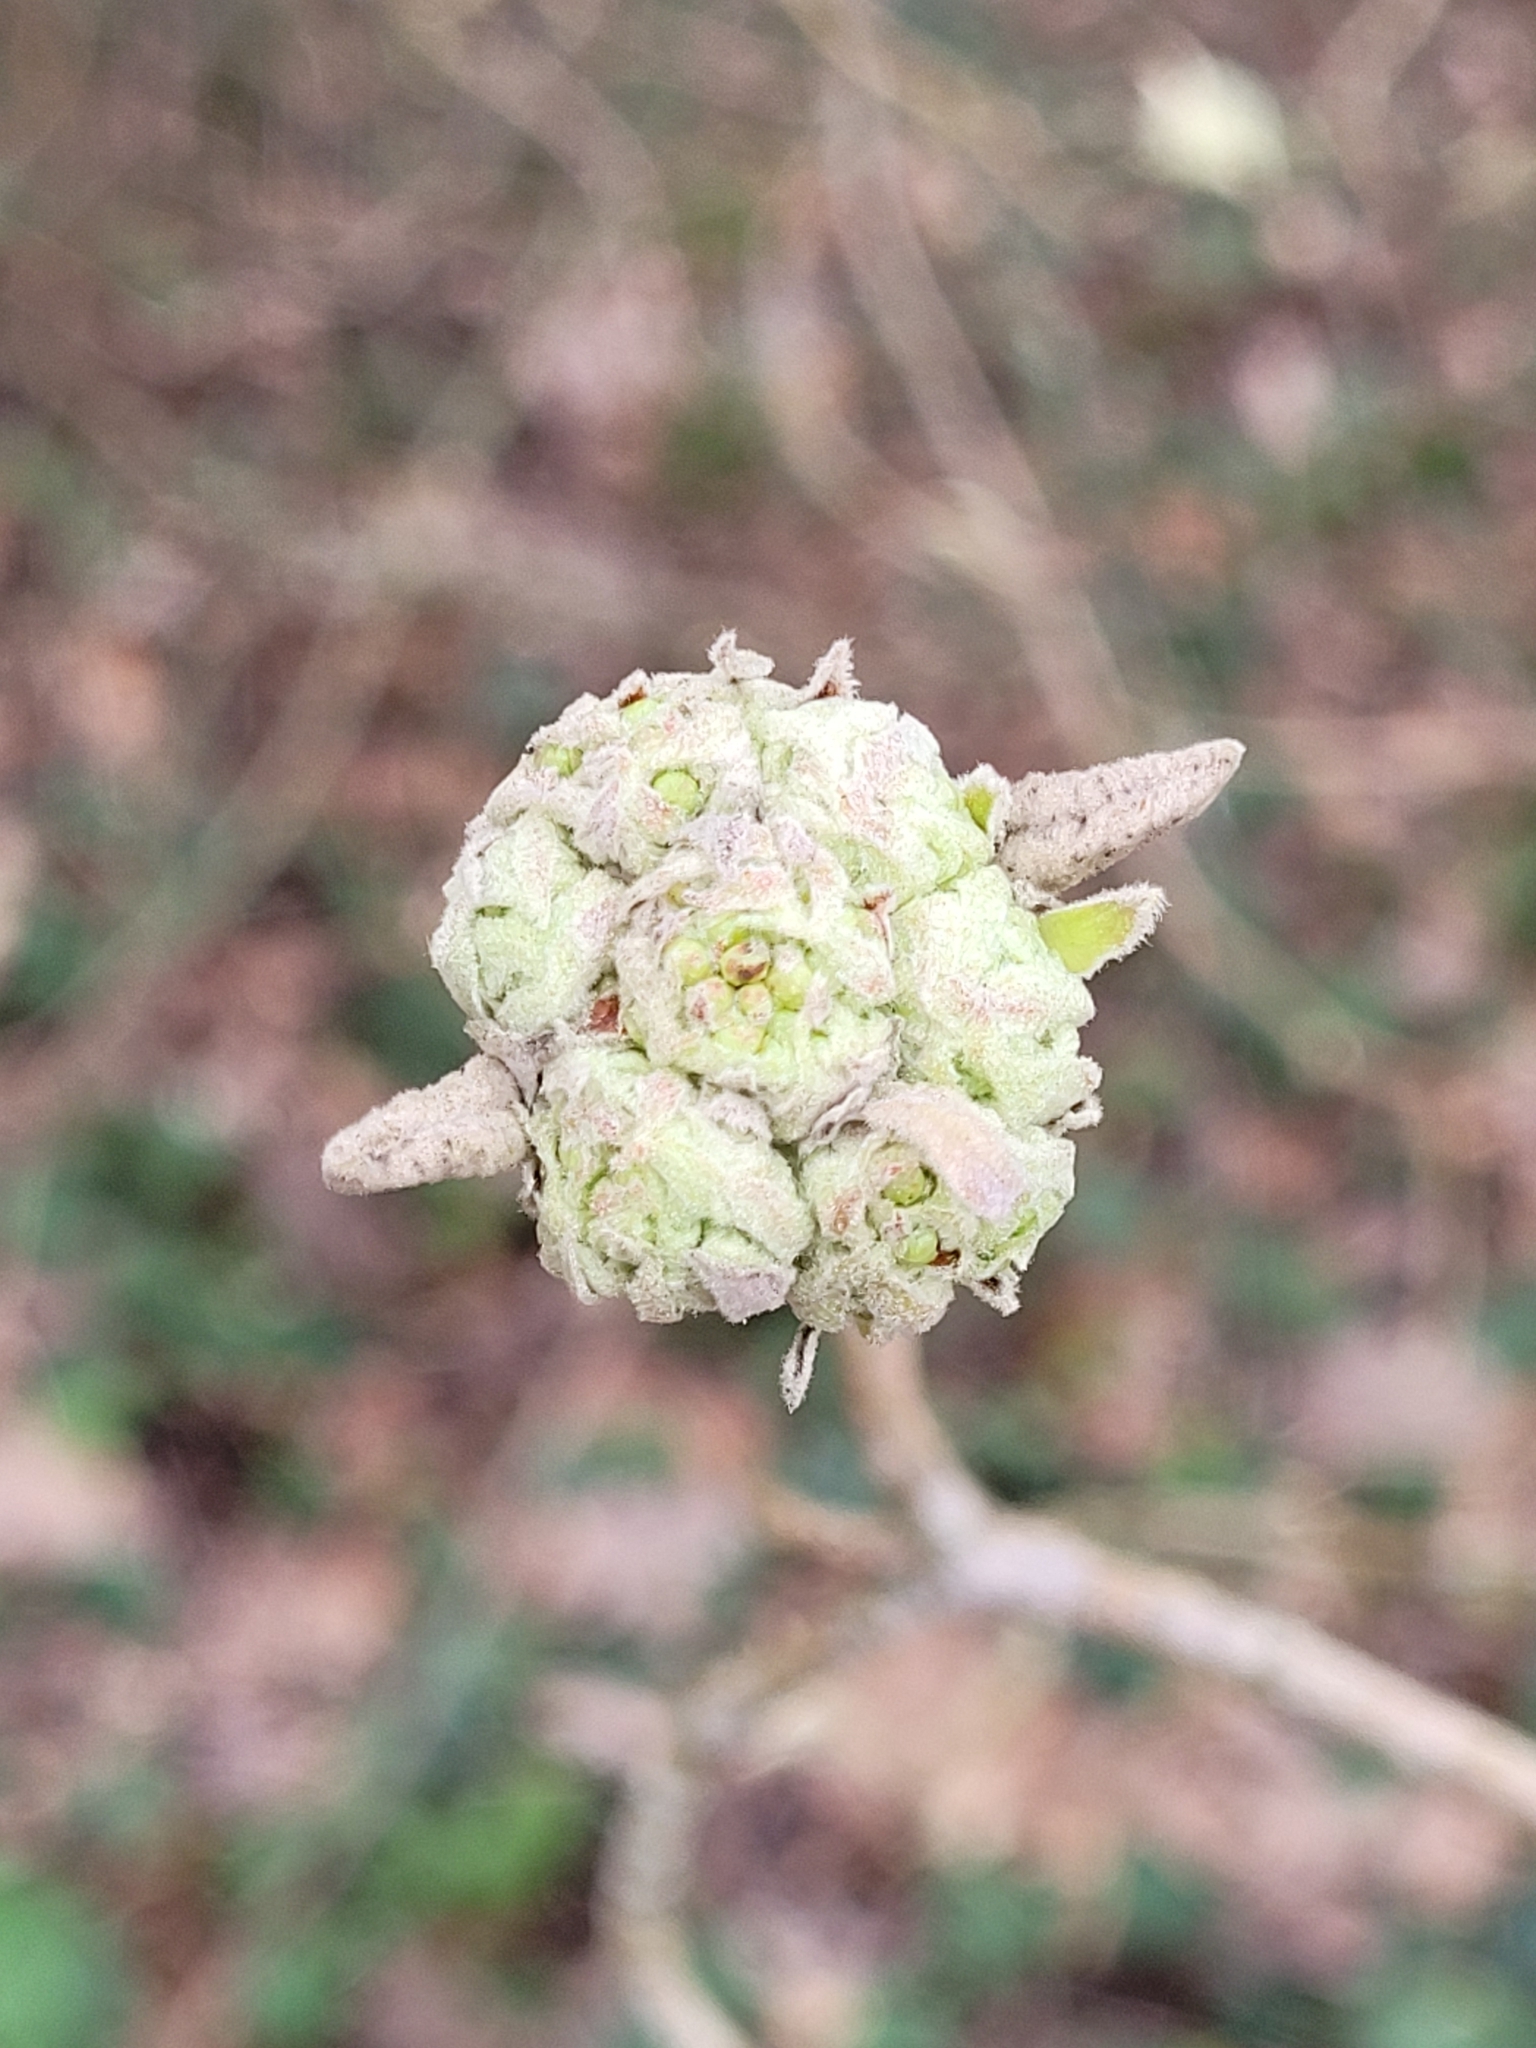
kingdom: Plantae
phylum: Tracheophyta
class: Magnoliopsida
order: Dipsacales
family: Viburnaceae
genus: Viburnum
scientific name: Viburnum lantana
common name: Wayfaring tree
